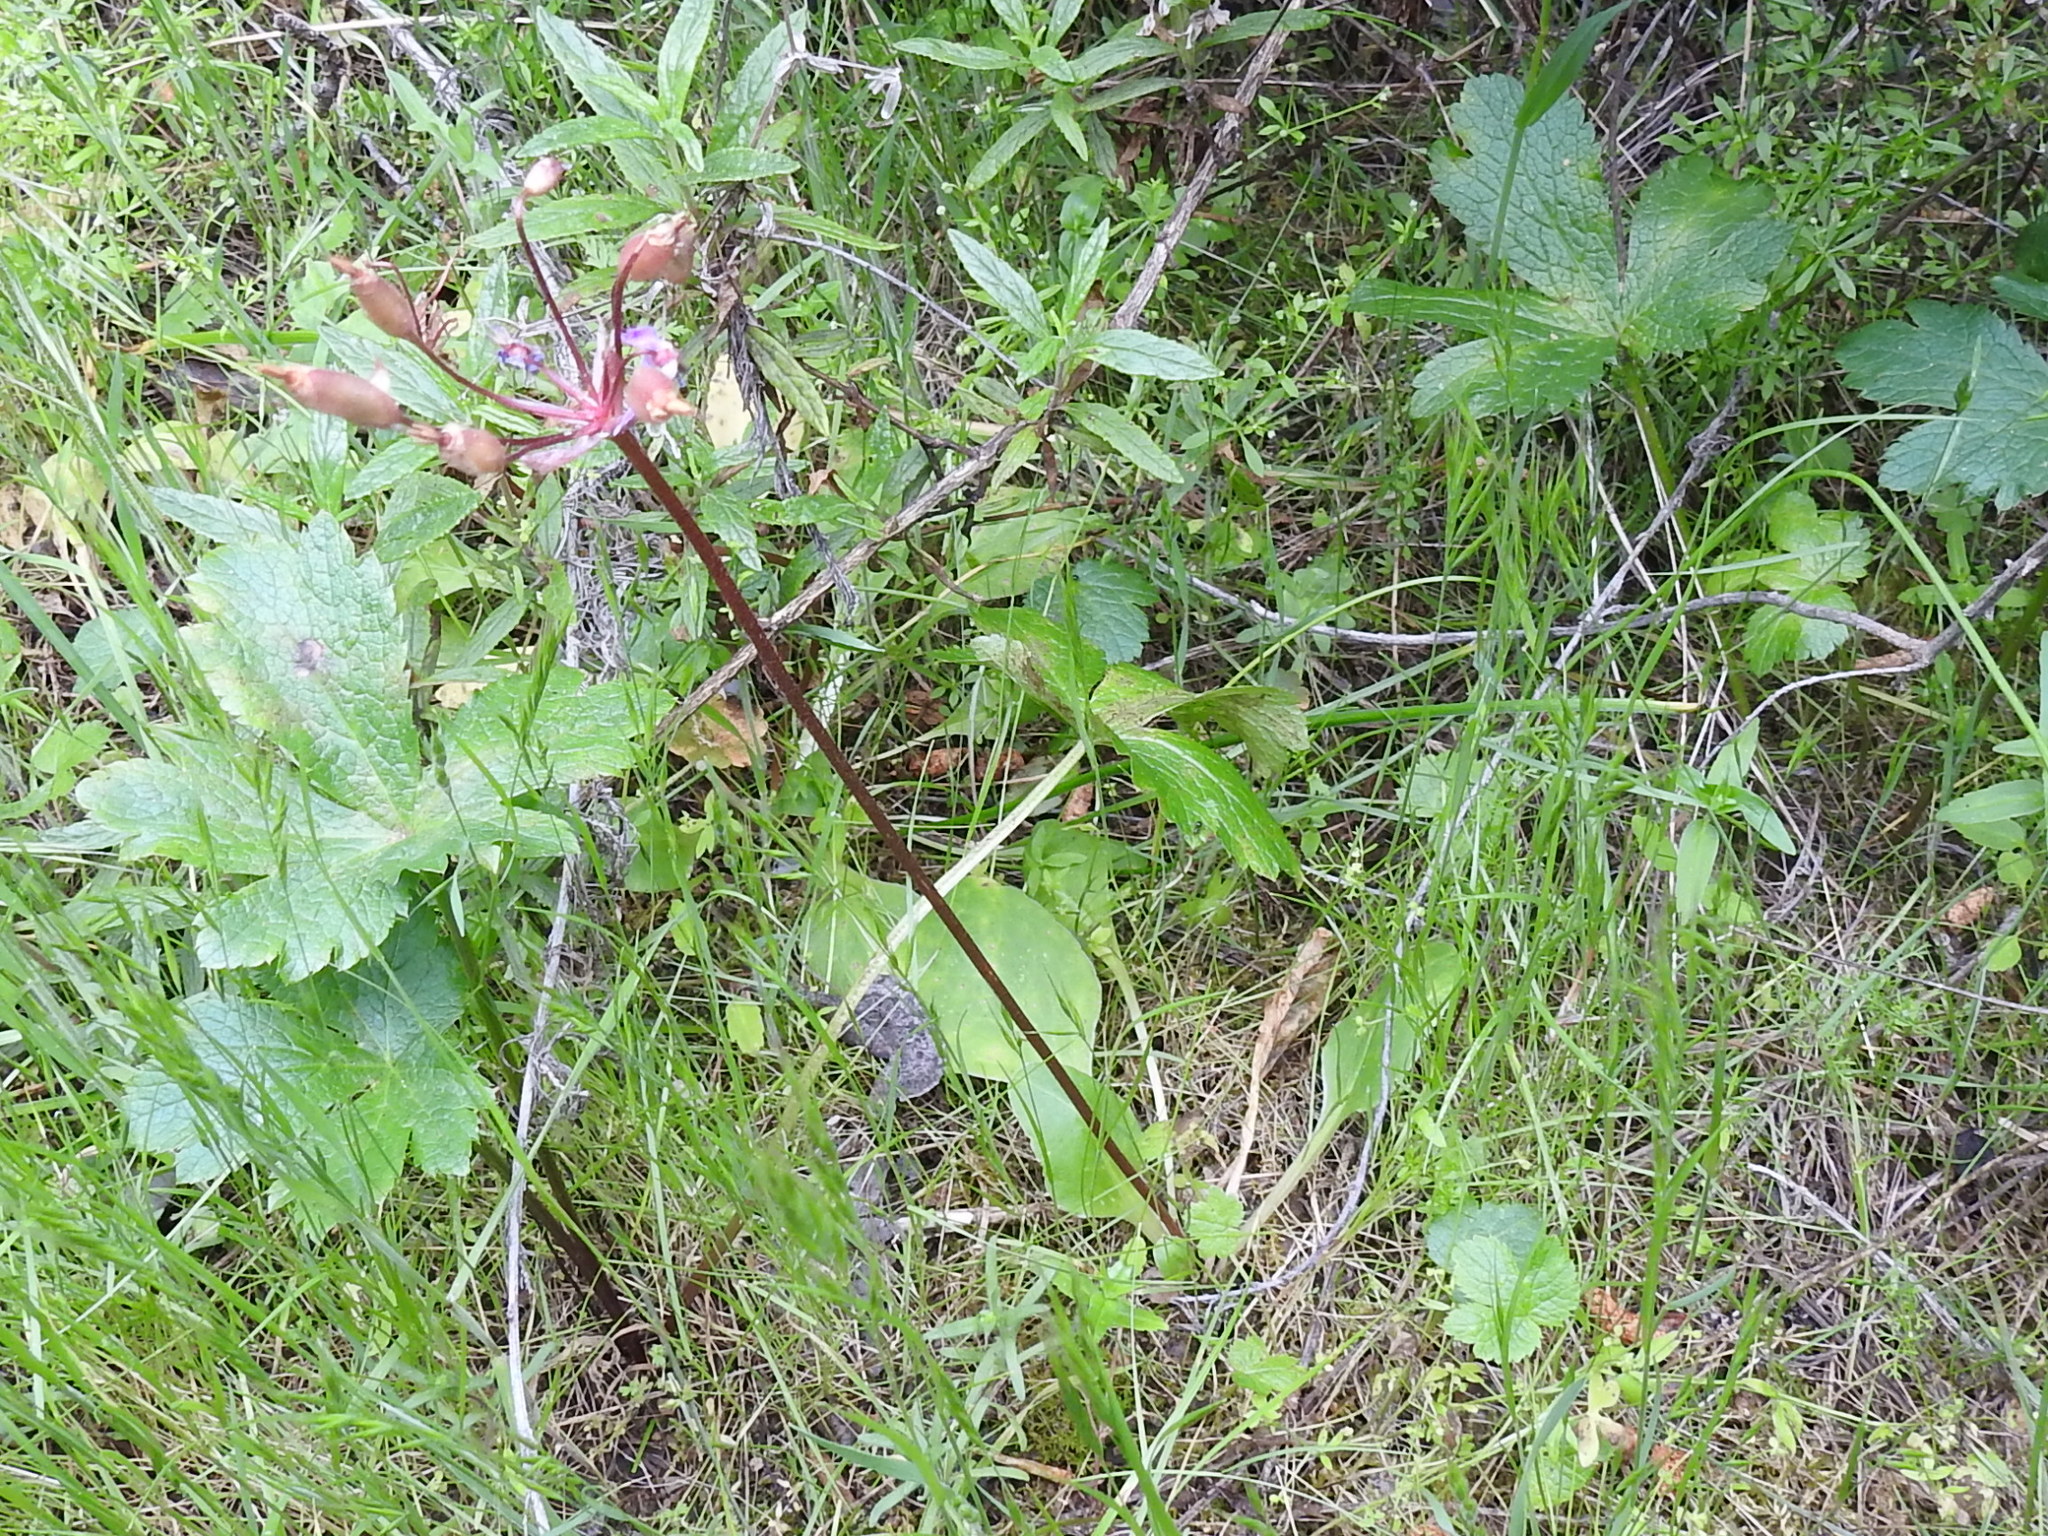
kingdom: Plantae
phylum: Tracheophyta
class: Magnoliopsida
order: Ericales
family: Primulaceae
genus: Dodecatheon
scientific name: Dodecatheon hendersonii
